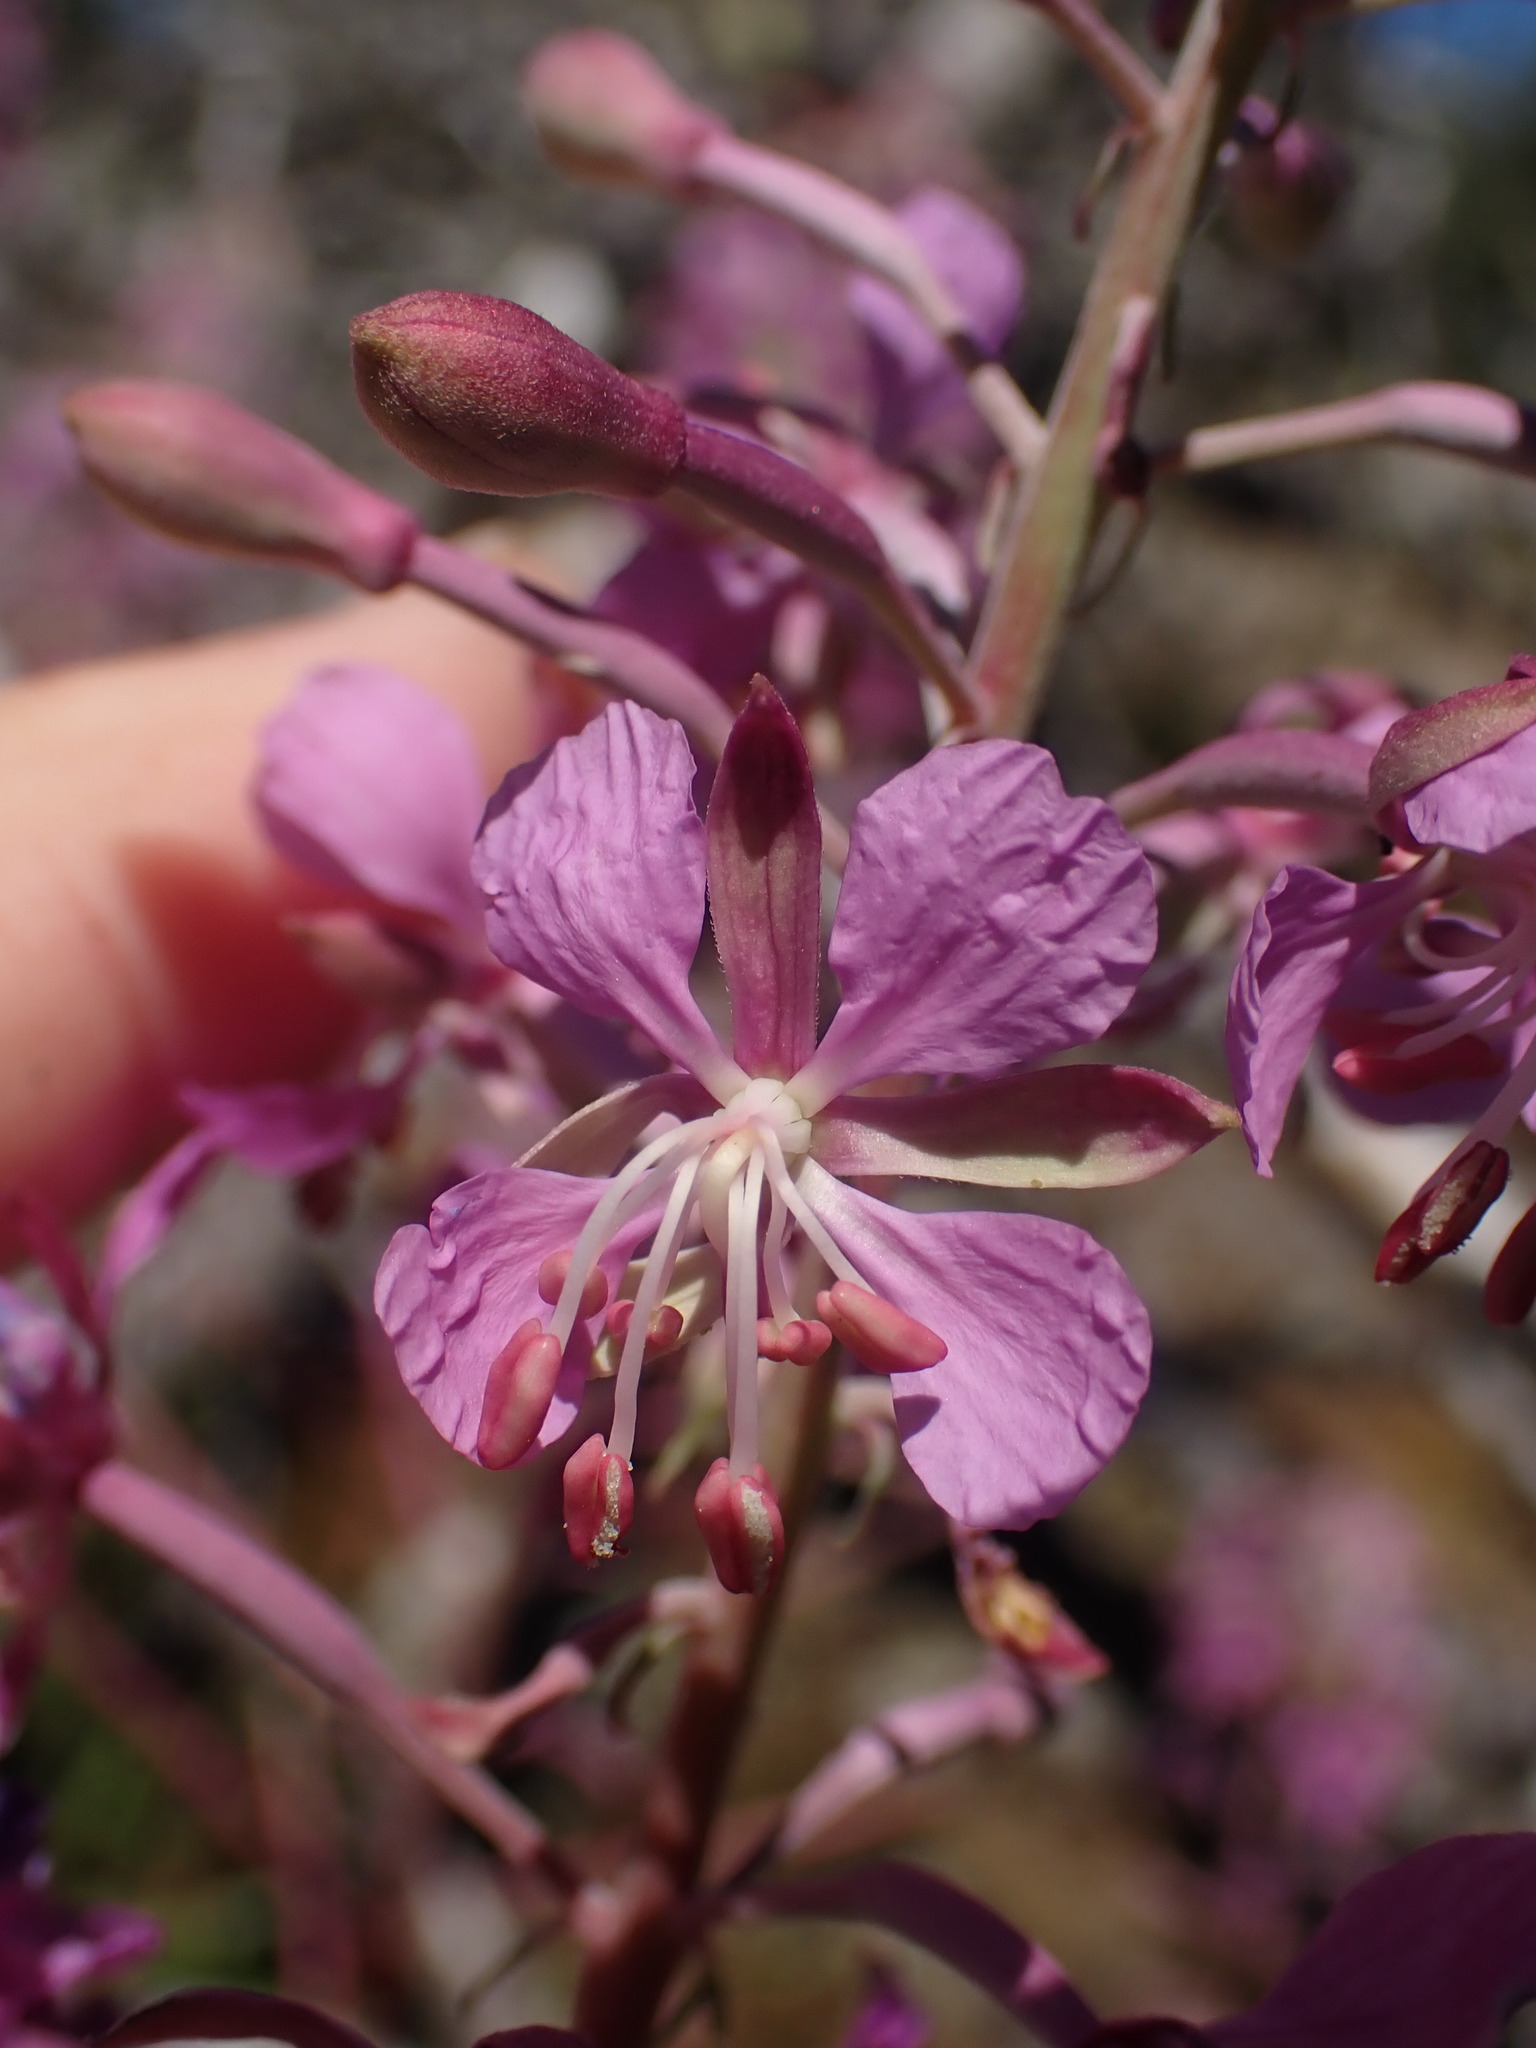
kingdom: Plantae
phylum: Tracheophyta
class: Magnoliopsida
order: Myrtales
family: Onagraceae
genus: Chamaenerion
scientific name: Chamaenerion angustifolium
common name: Fireweed
